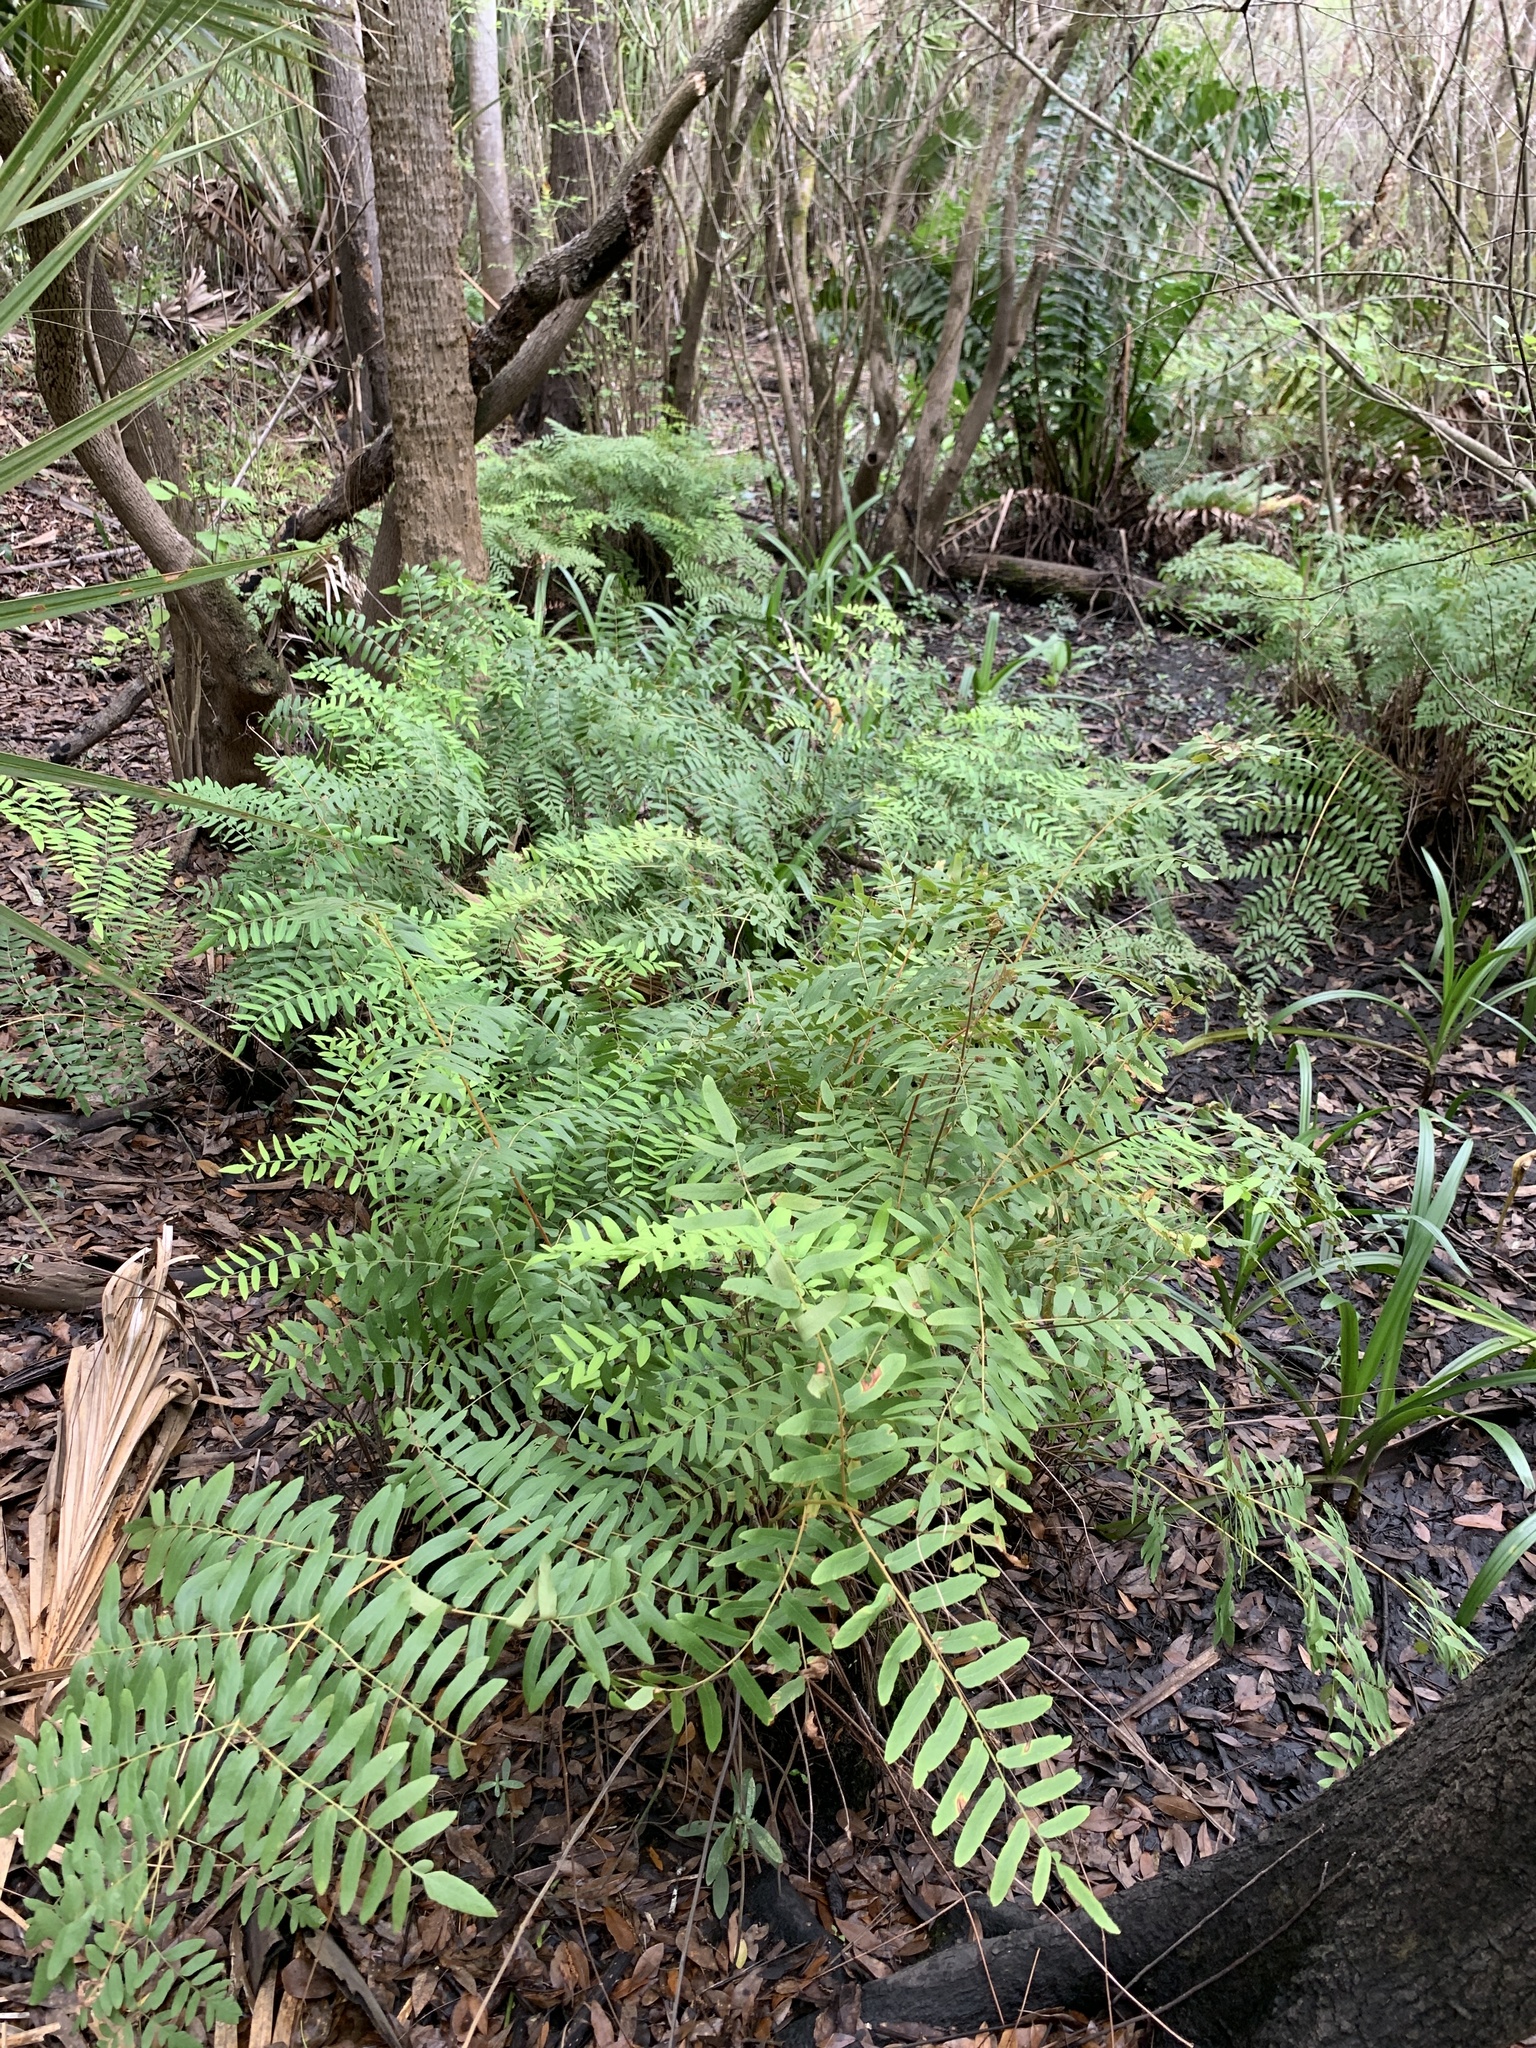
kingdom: Plantae
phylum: Tracheophyta
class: Polypodiopsida
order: Osmundales
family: Osmundaceae
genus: Osmunda
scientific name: Osmunda spectabilis
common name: American royal fern
